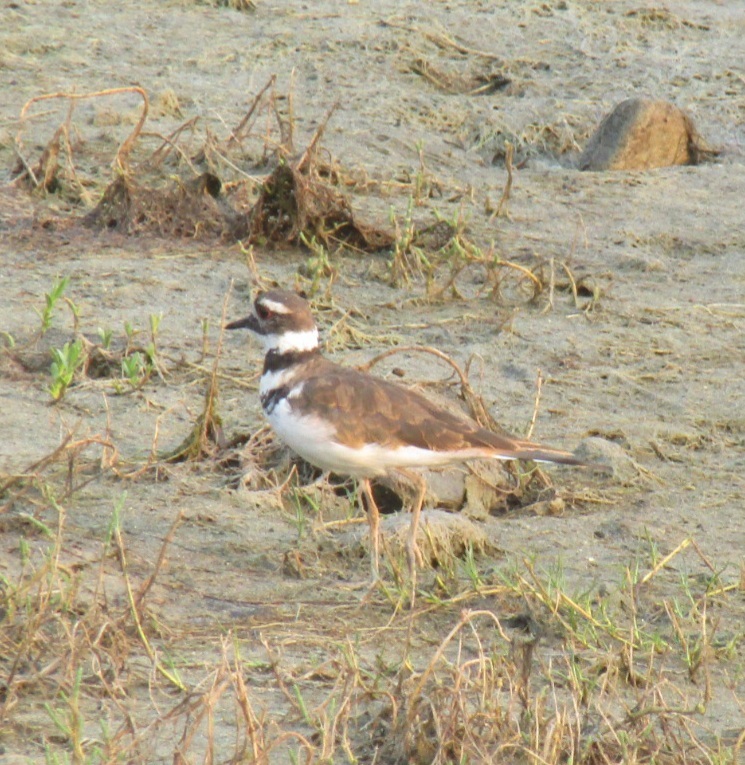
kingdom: Animalia
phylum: Chordata
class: Aves
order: Charadriiformes
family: Charadriidae
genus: Charadrius
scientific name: Charadrius vociferus
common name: Killdeer
